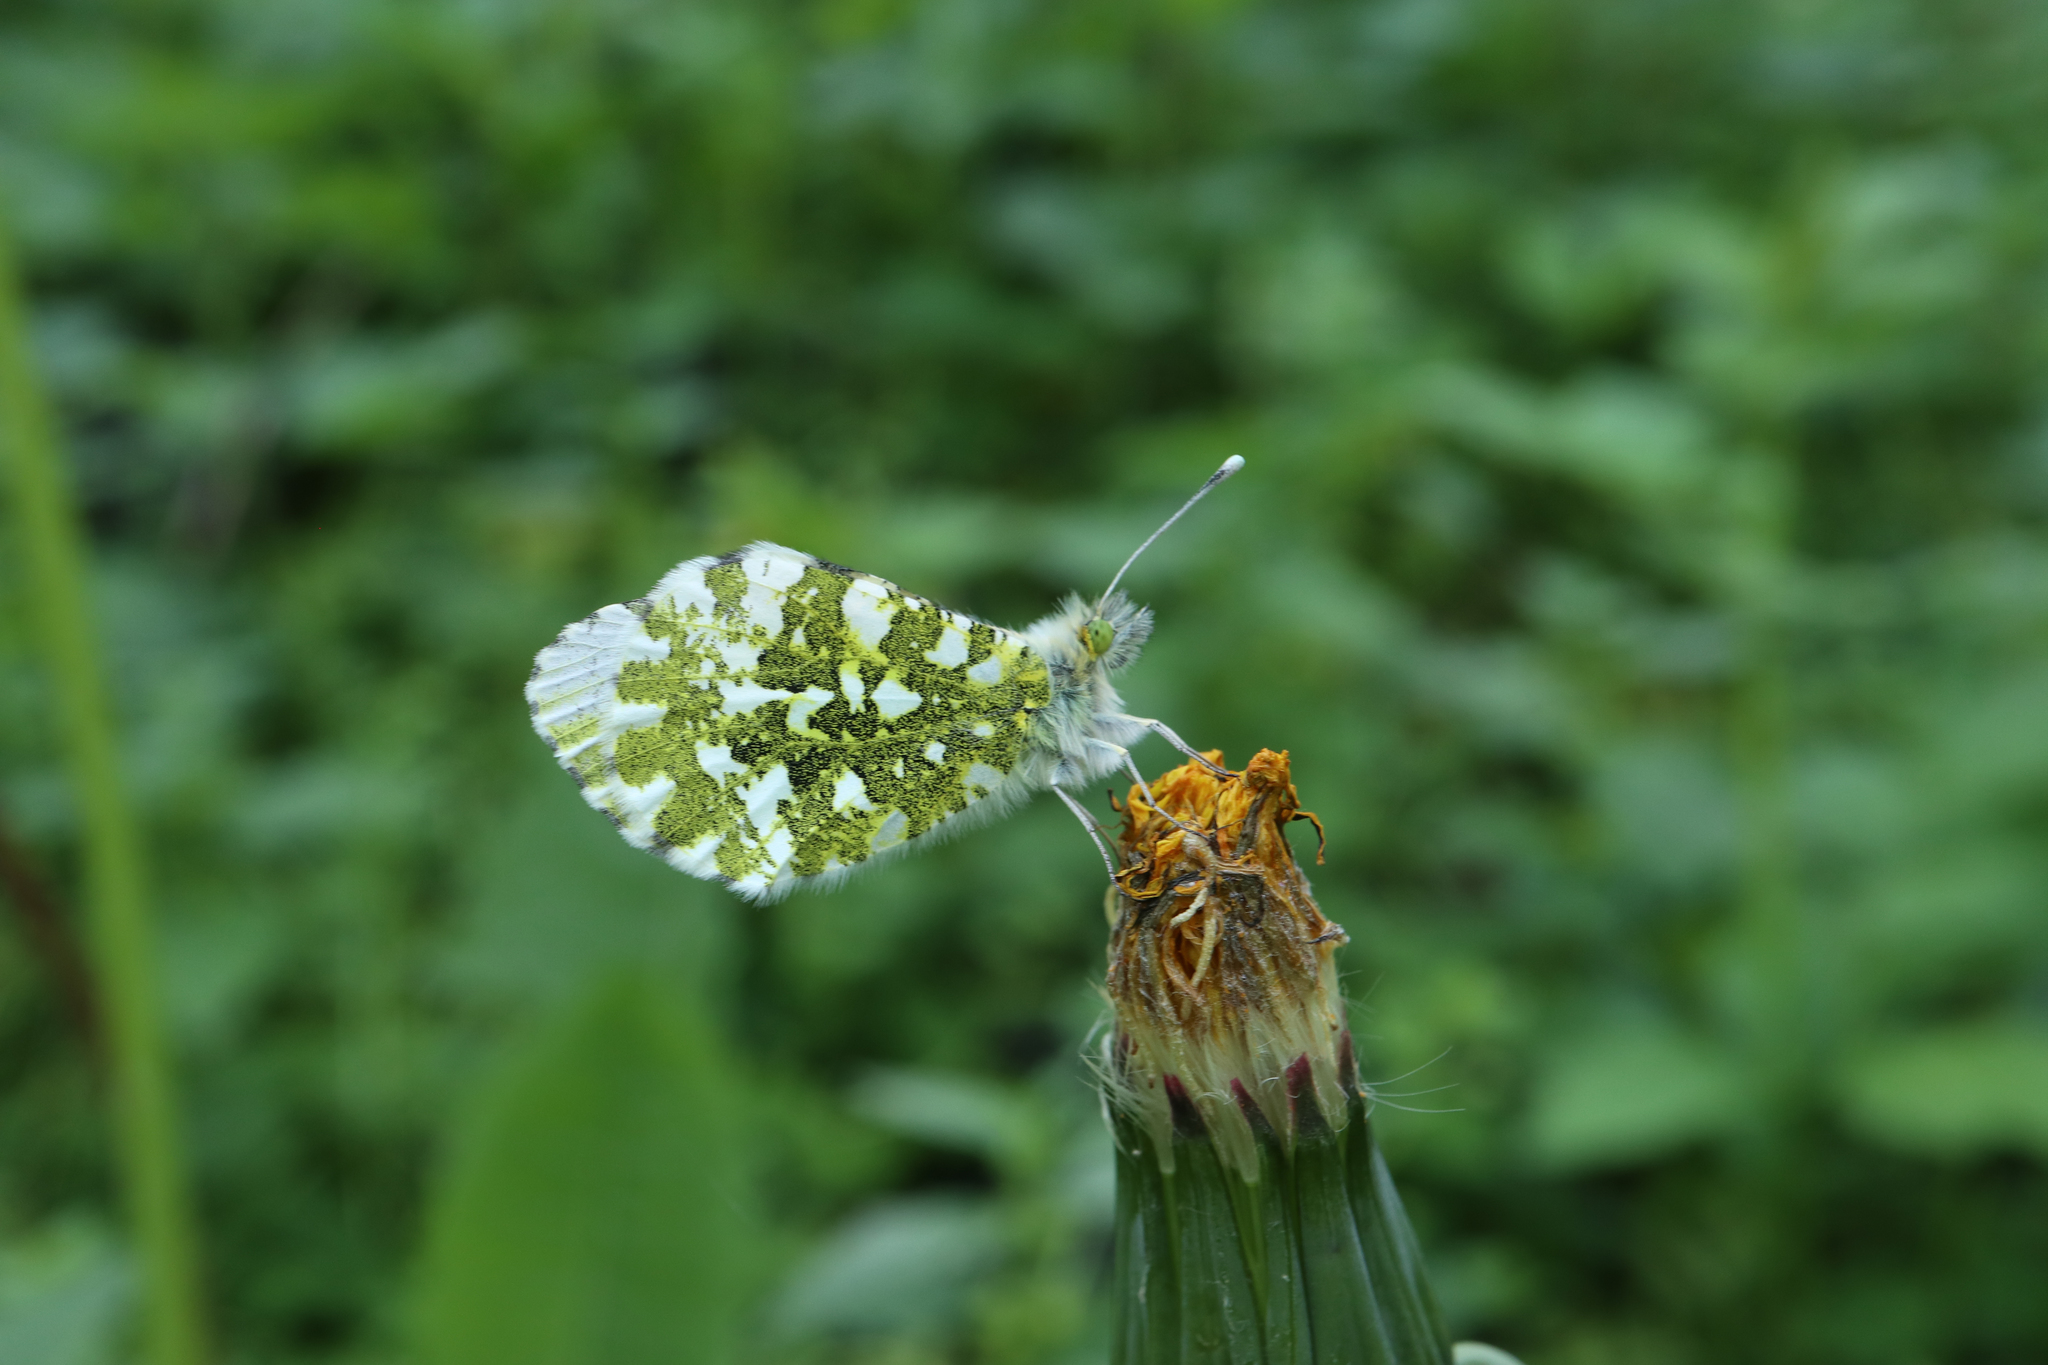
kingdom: Animalia
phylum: Arthropoda
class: Insecta
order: Lepidoptera
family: Pieridae
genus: Anthocharis
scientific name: Anthocharis cardamines
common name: Orange-tip
